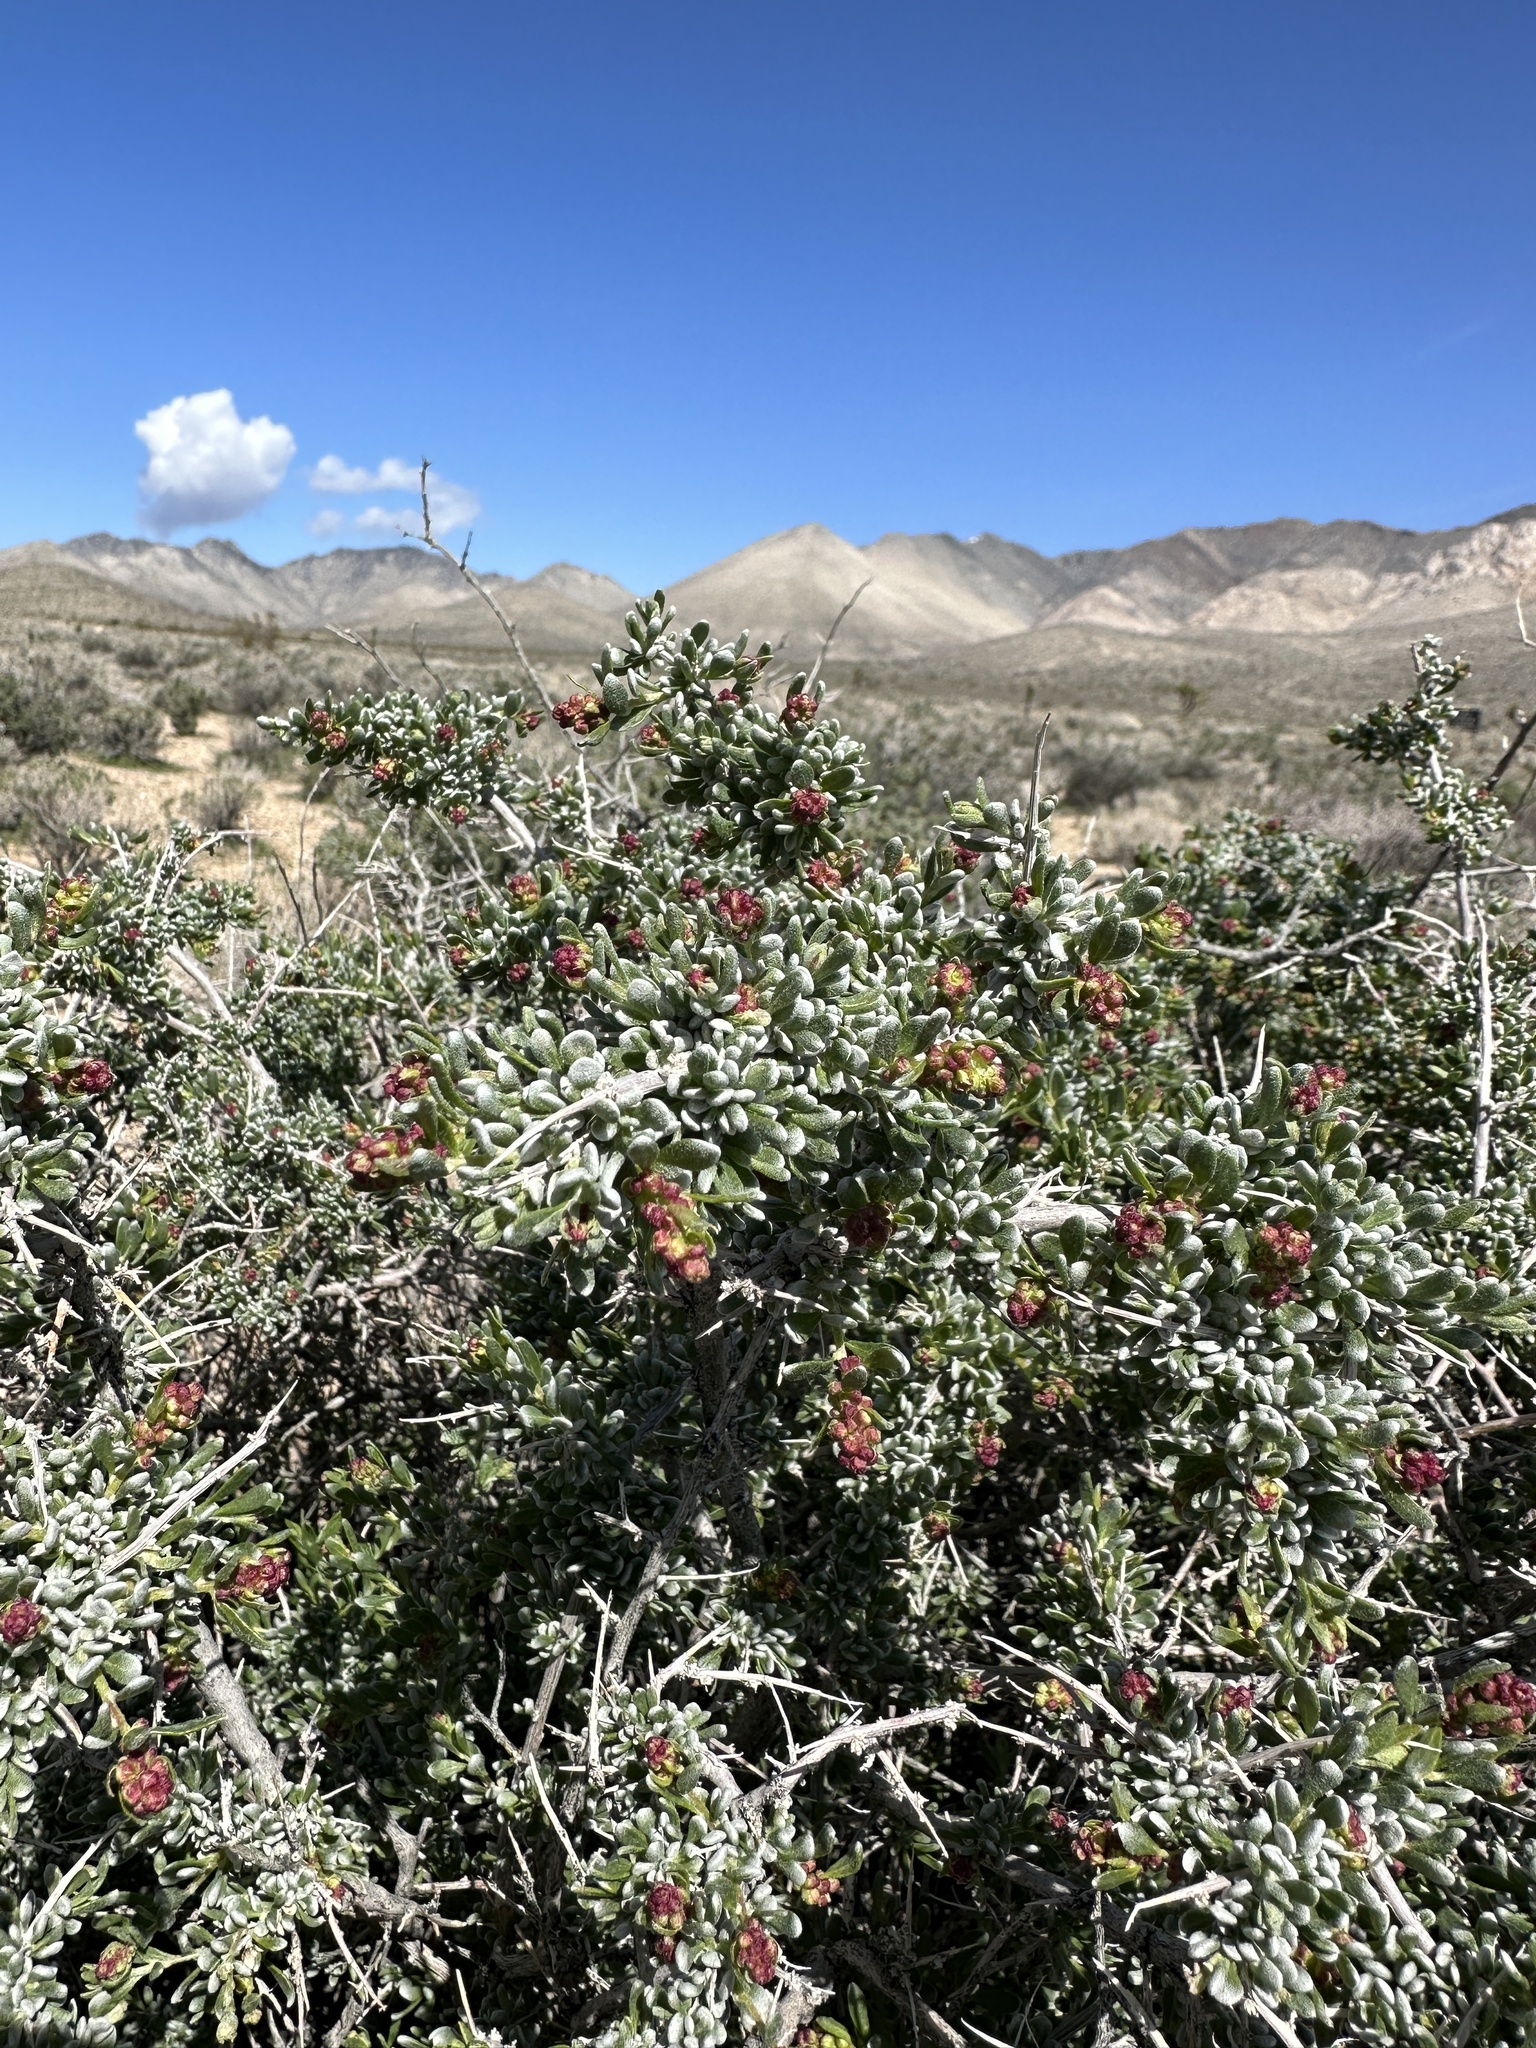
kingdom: Plantae
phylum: Tracheophyta
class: Magnoliopsida
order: Caryophyllales
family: Amaranthaceae
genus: Grayia
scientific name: Grayia spinosa
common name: Spiny hopsage
